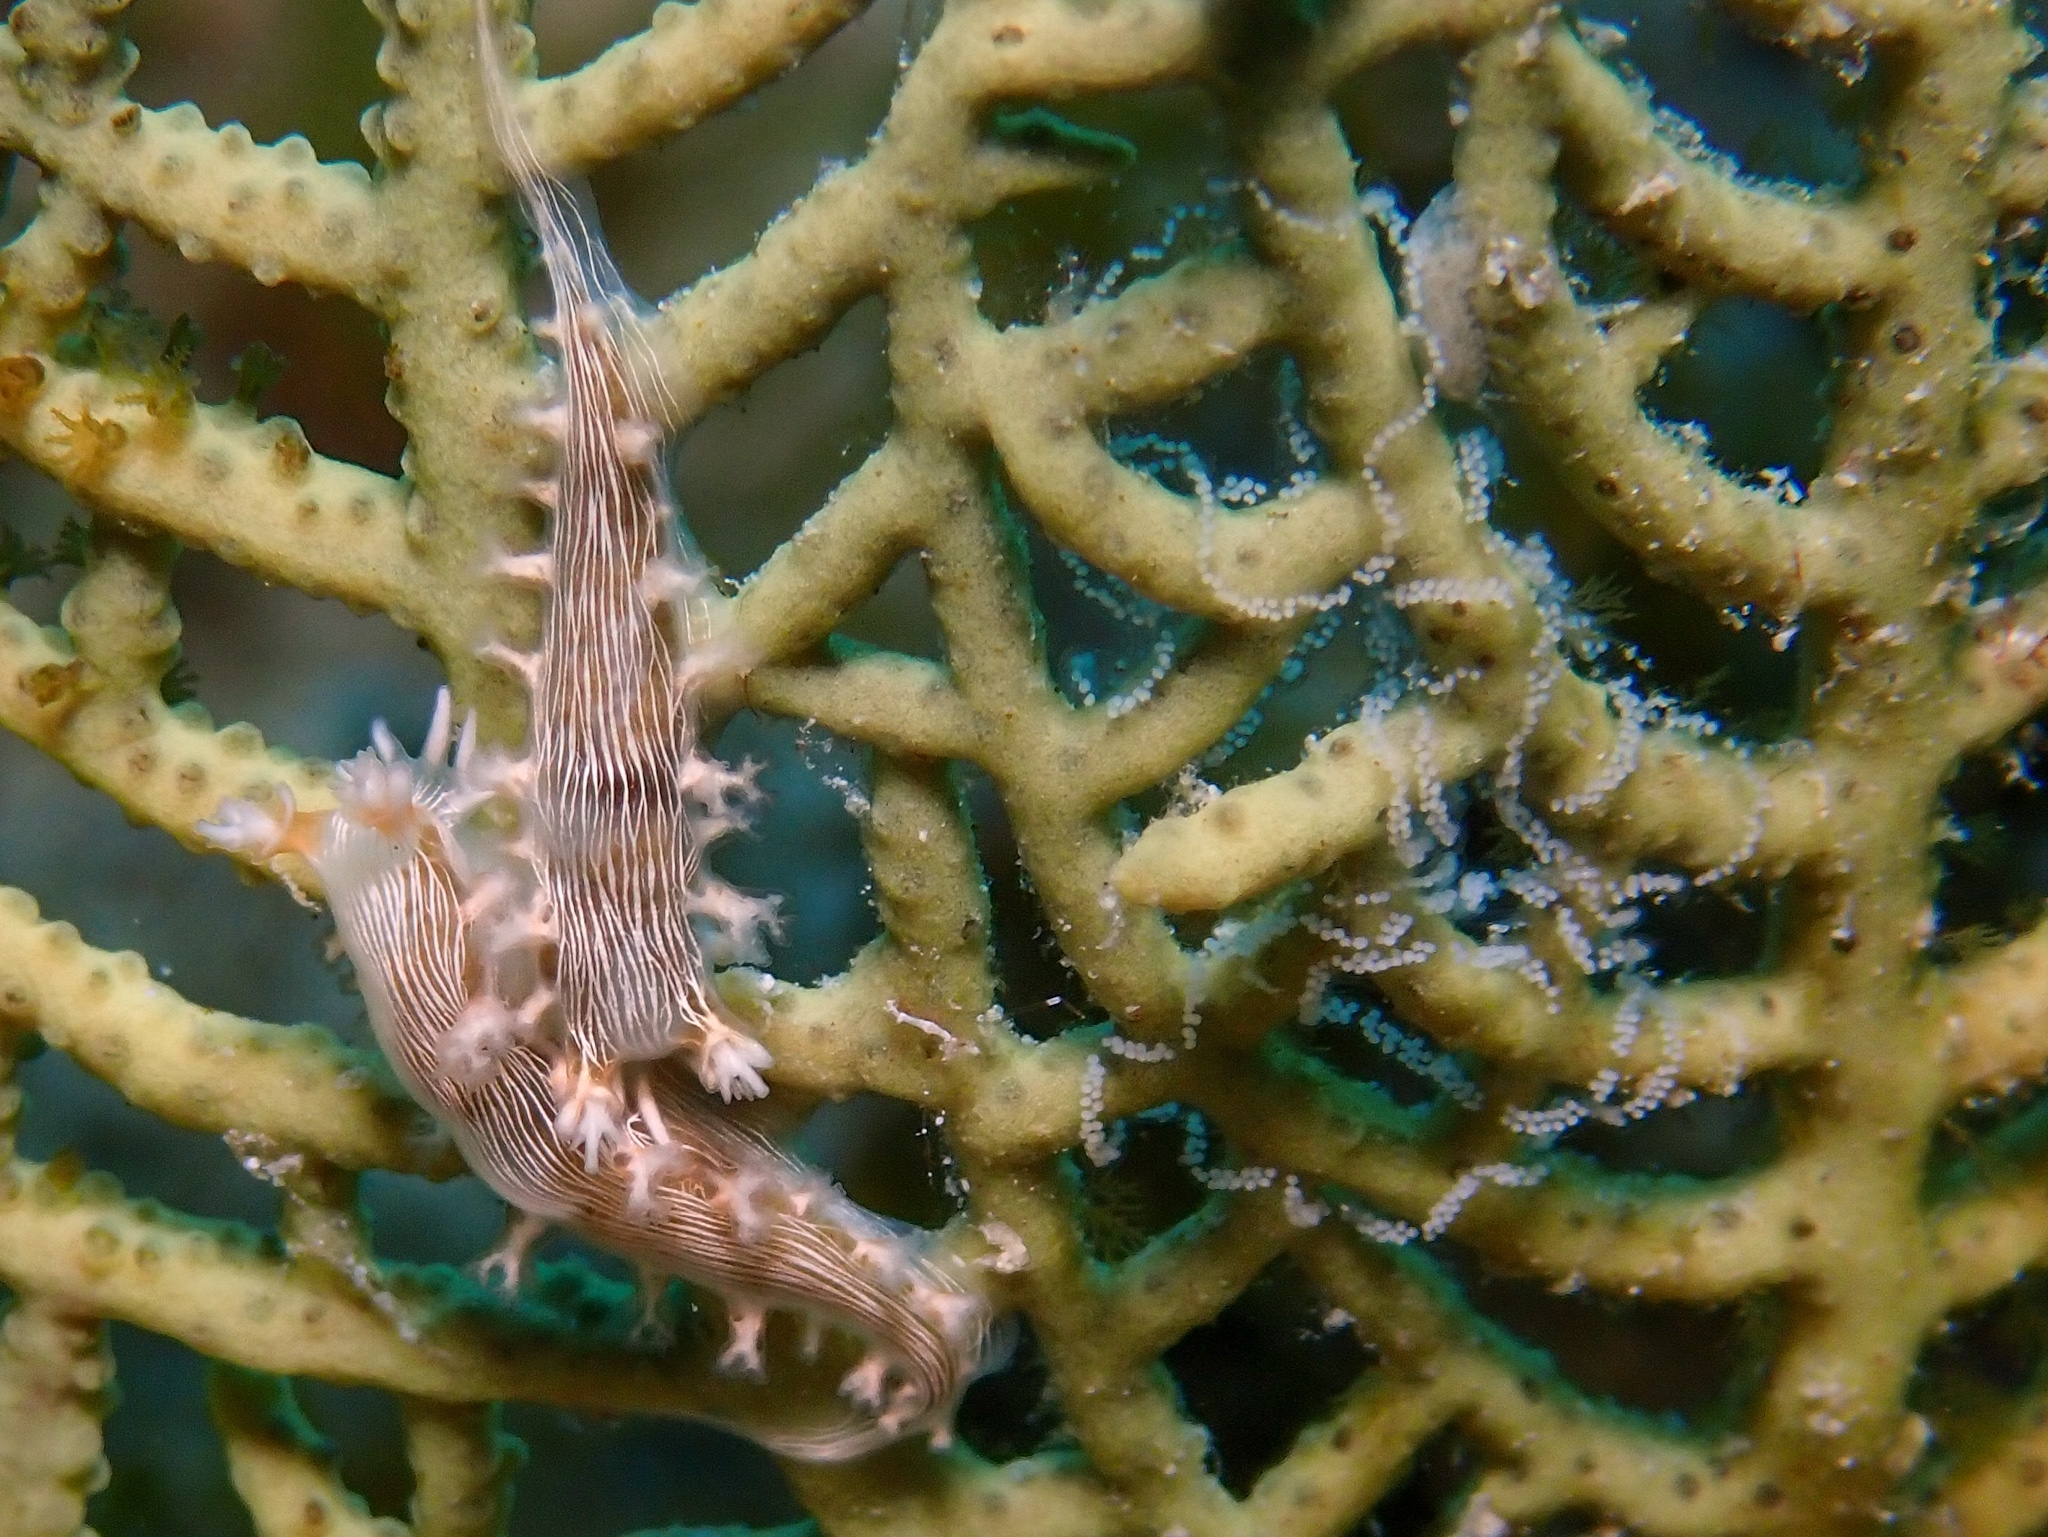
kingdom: Animalia
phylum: Mollusca
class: Gastropoda
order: Nudibranchia
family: Tritoniidae
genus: Tritonicula
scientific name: Tritonicula hamnerorum
